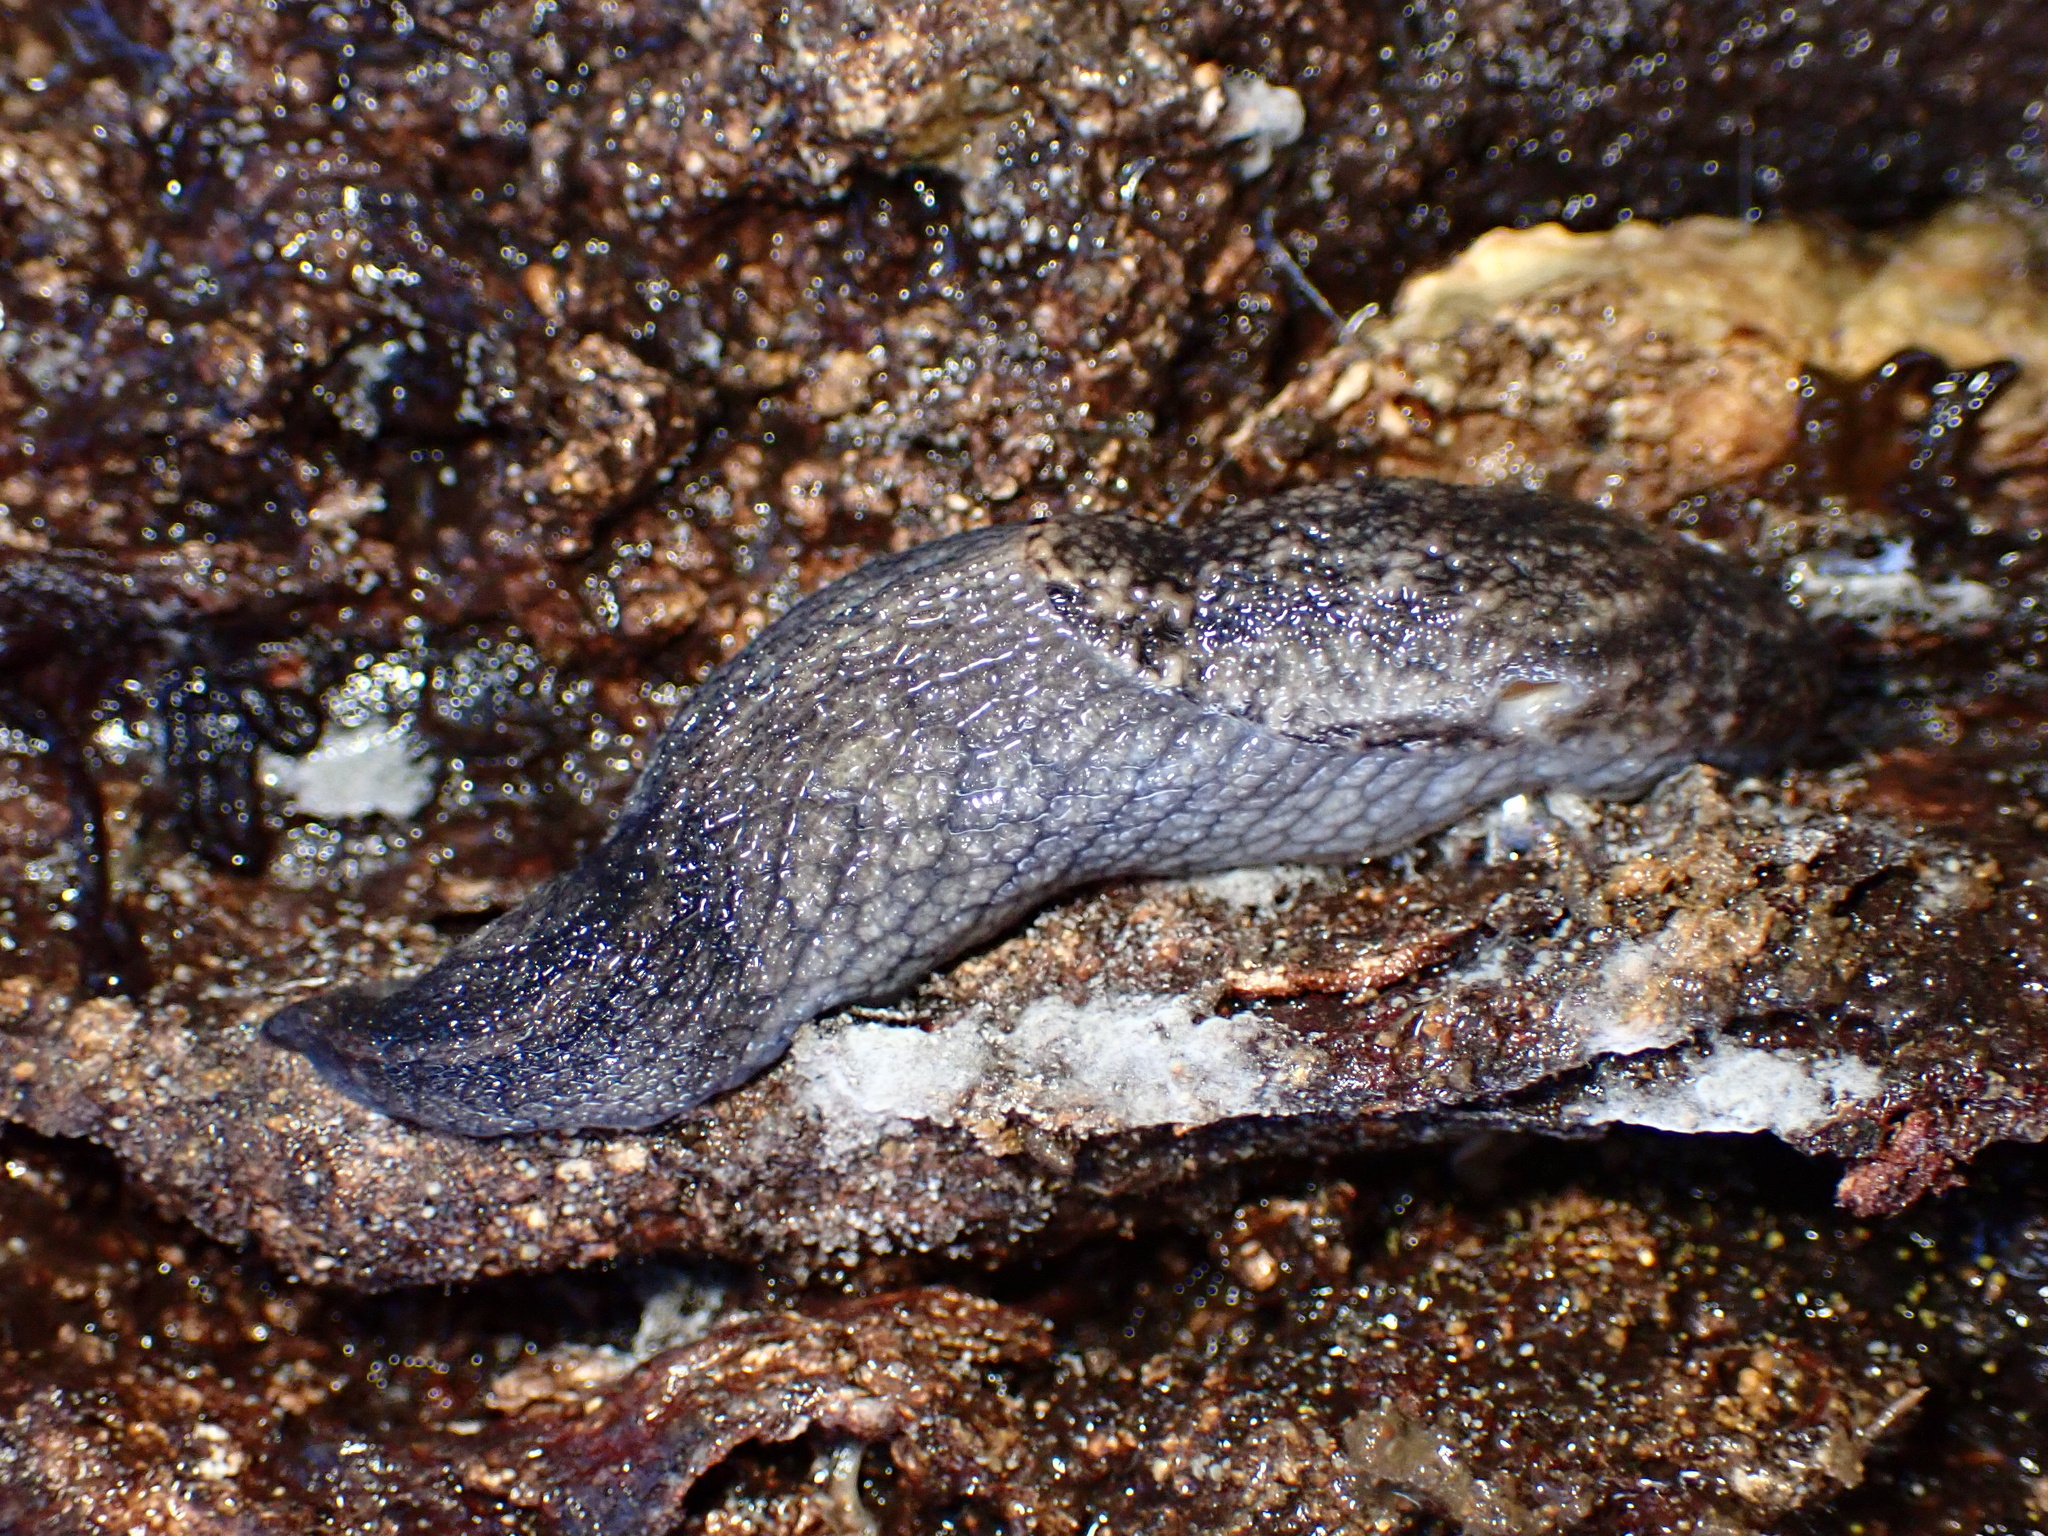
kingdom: Animalia
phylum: Mollusca
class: Gastropoda
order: Stylommatophora
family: Ariolimacidae
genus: Prophysaon
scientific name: Prophysaon andersonii
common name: Reticulate taildropper
